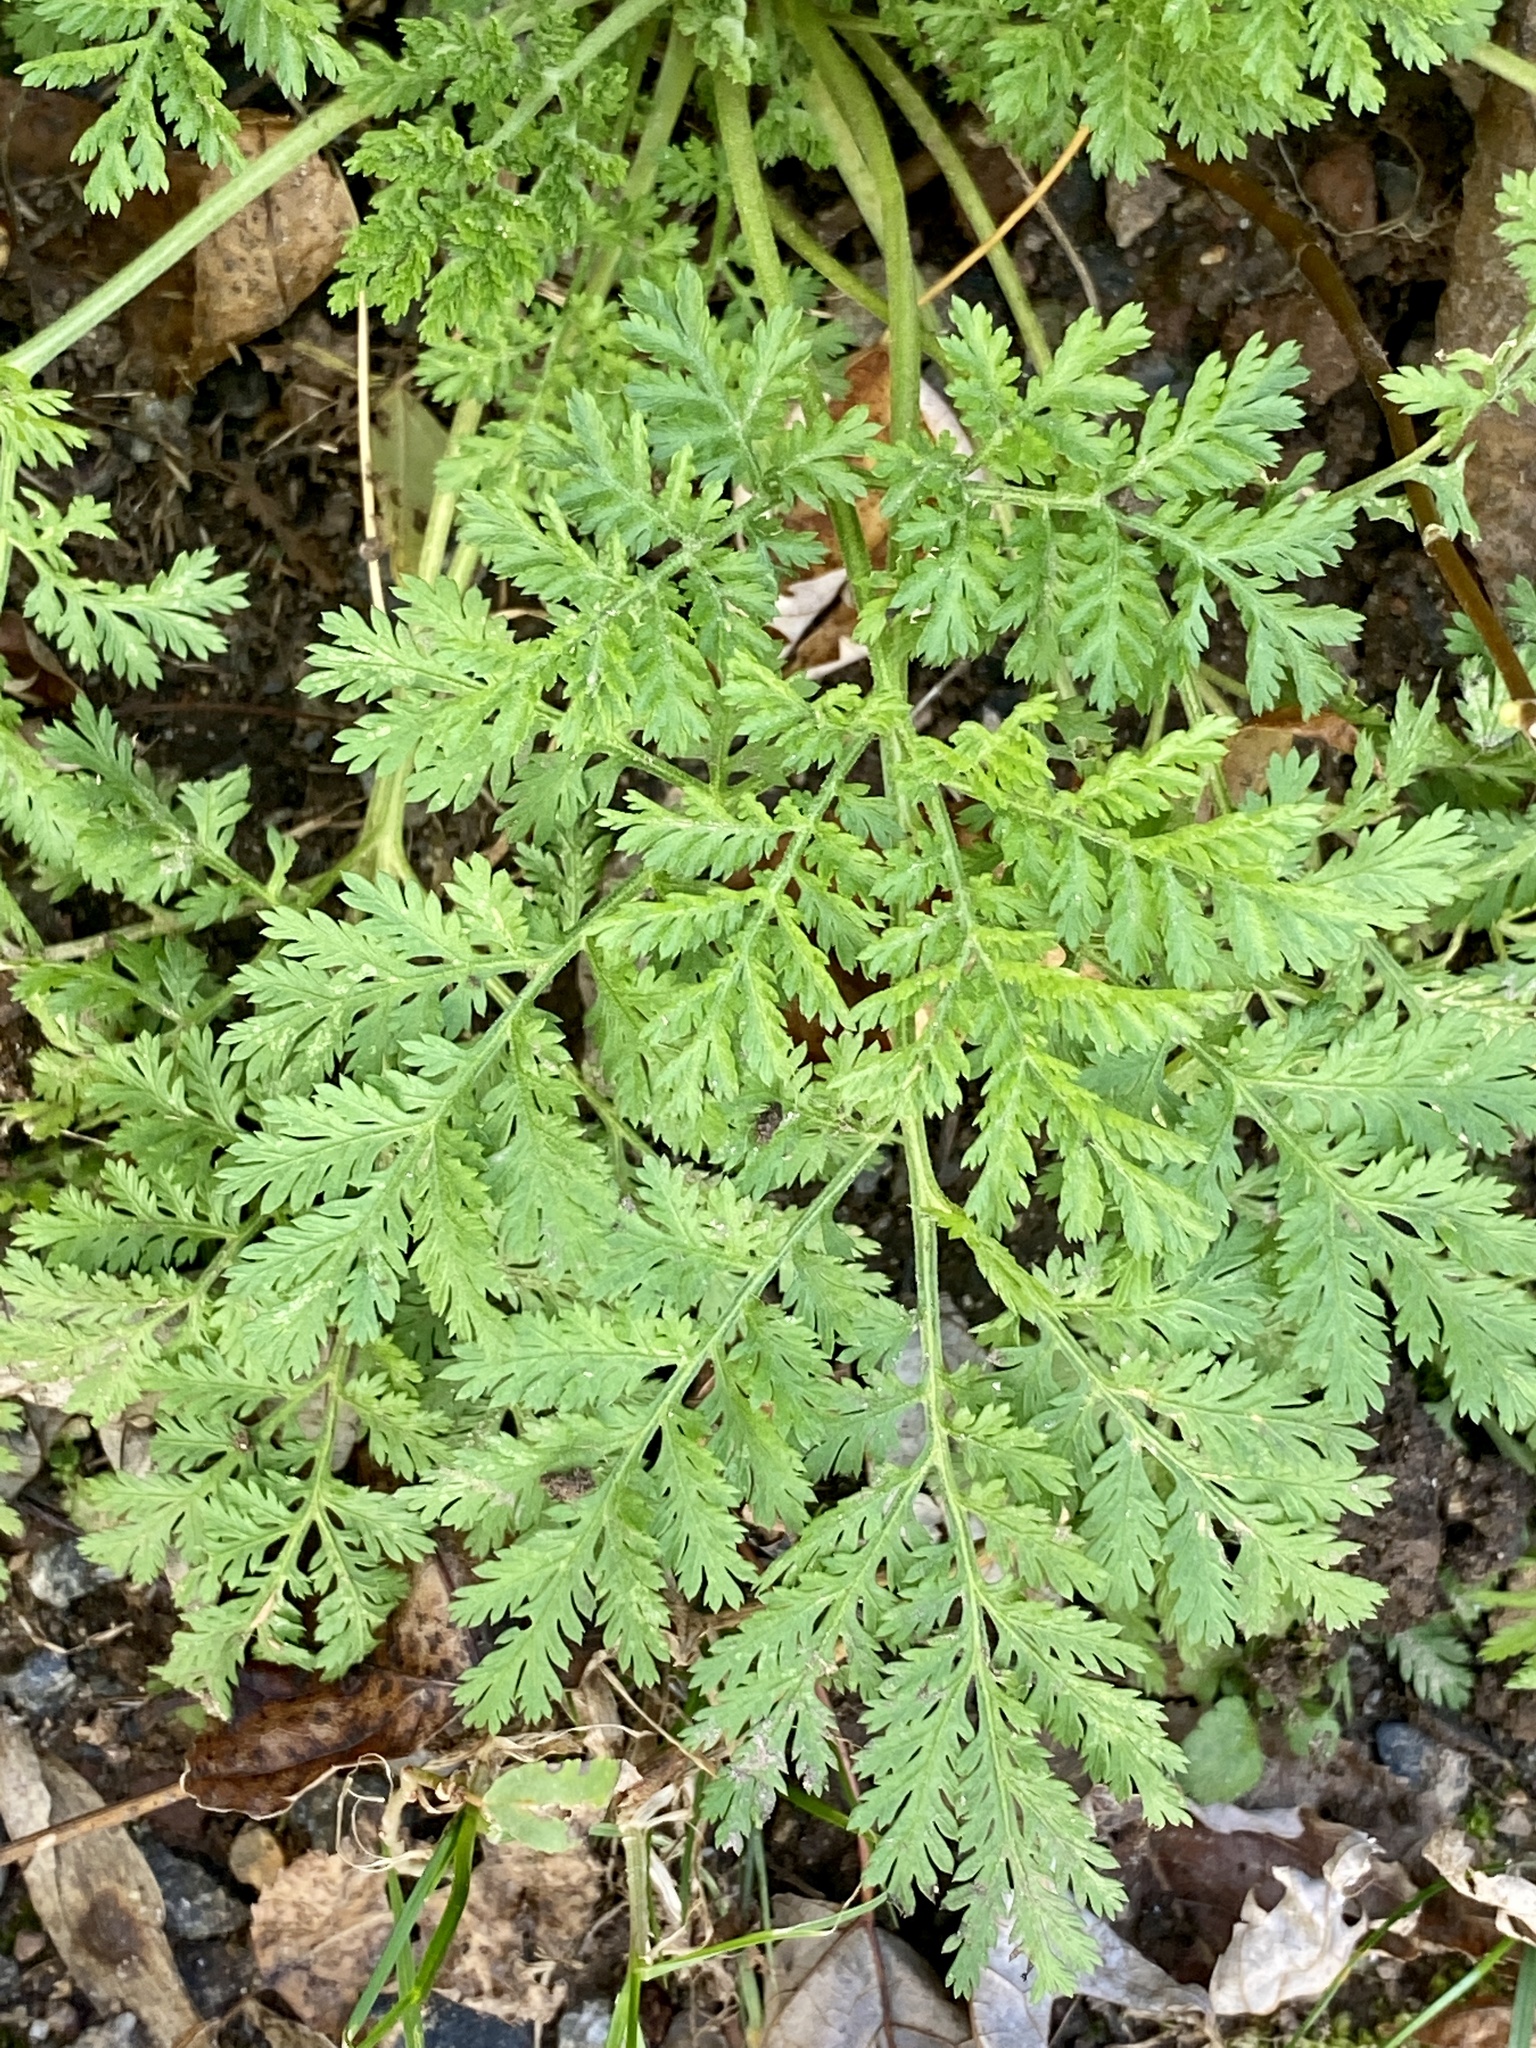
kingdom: Plantae
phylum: Tracheophyta
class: Magnoliopsida
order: Asterales
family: Asteraceae
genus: Artemisia
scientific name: Artemisia annua
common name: Sweet sagewort
